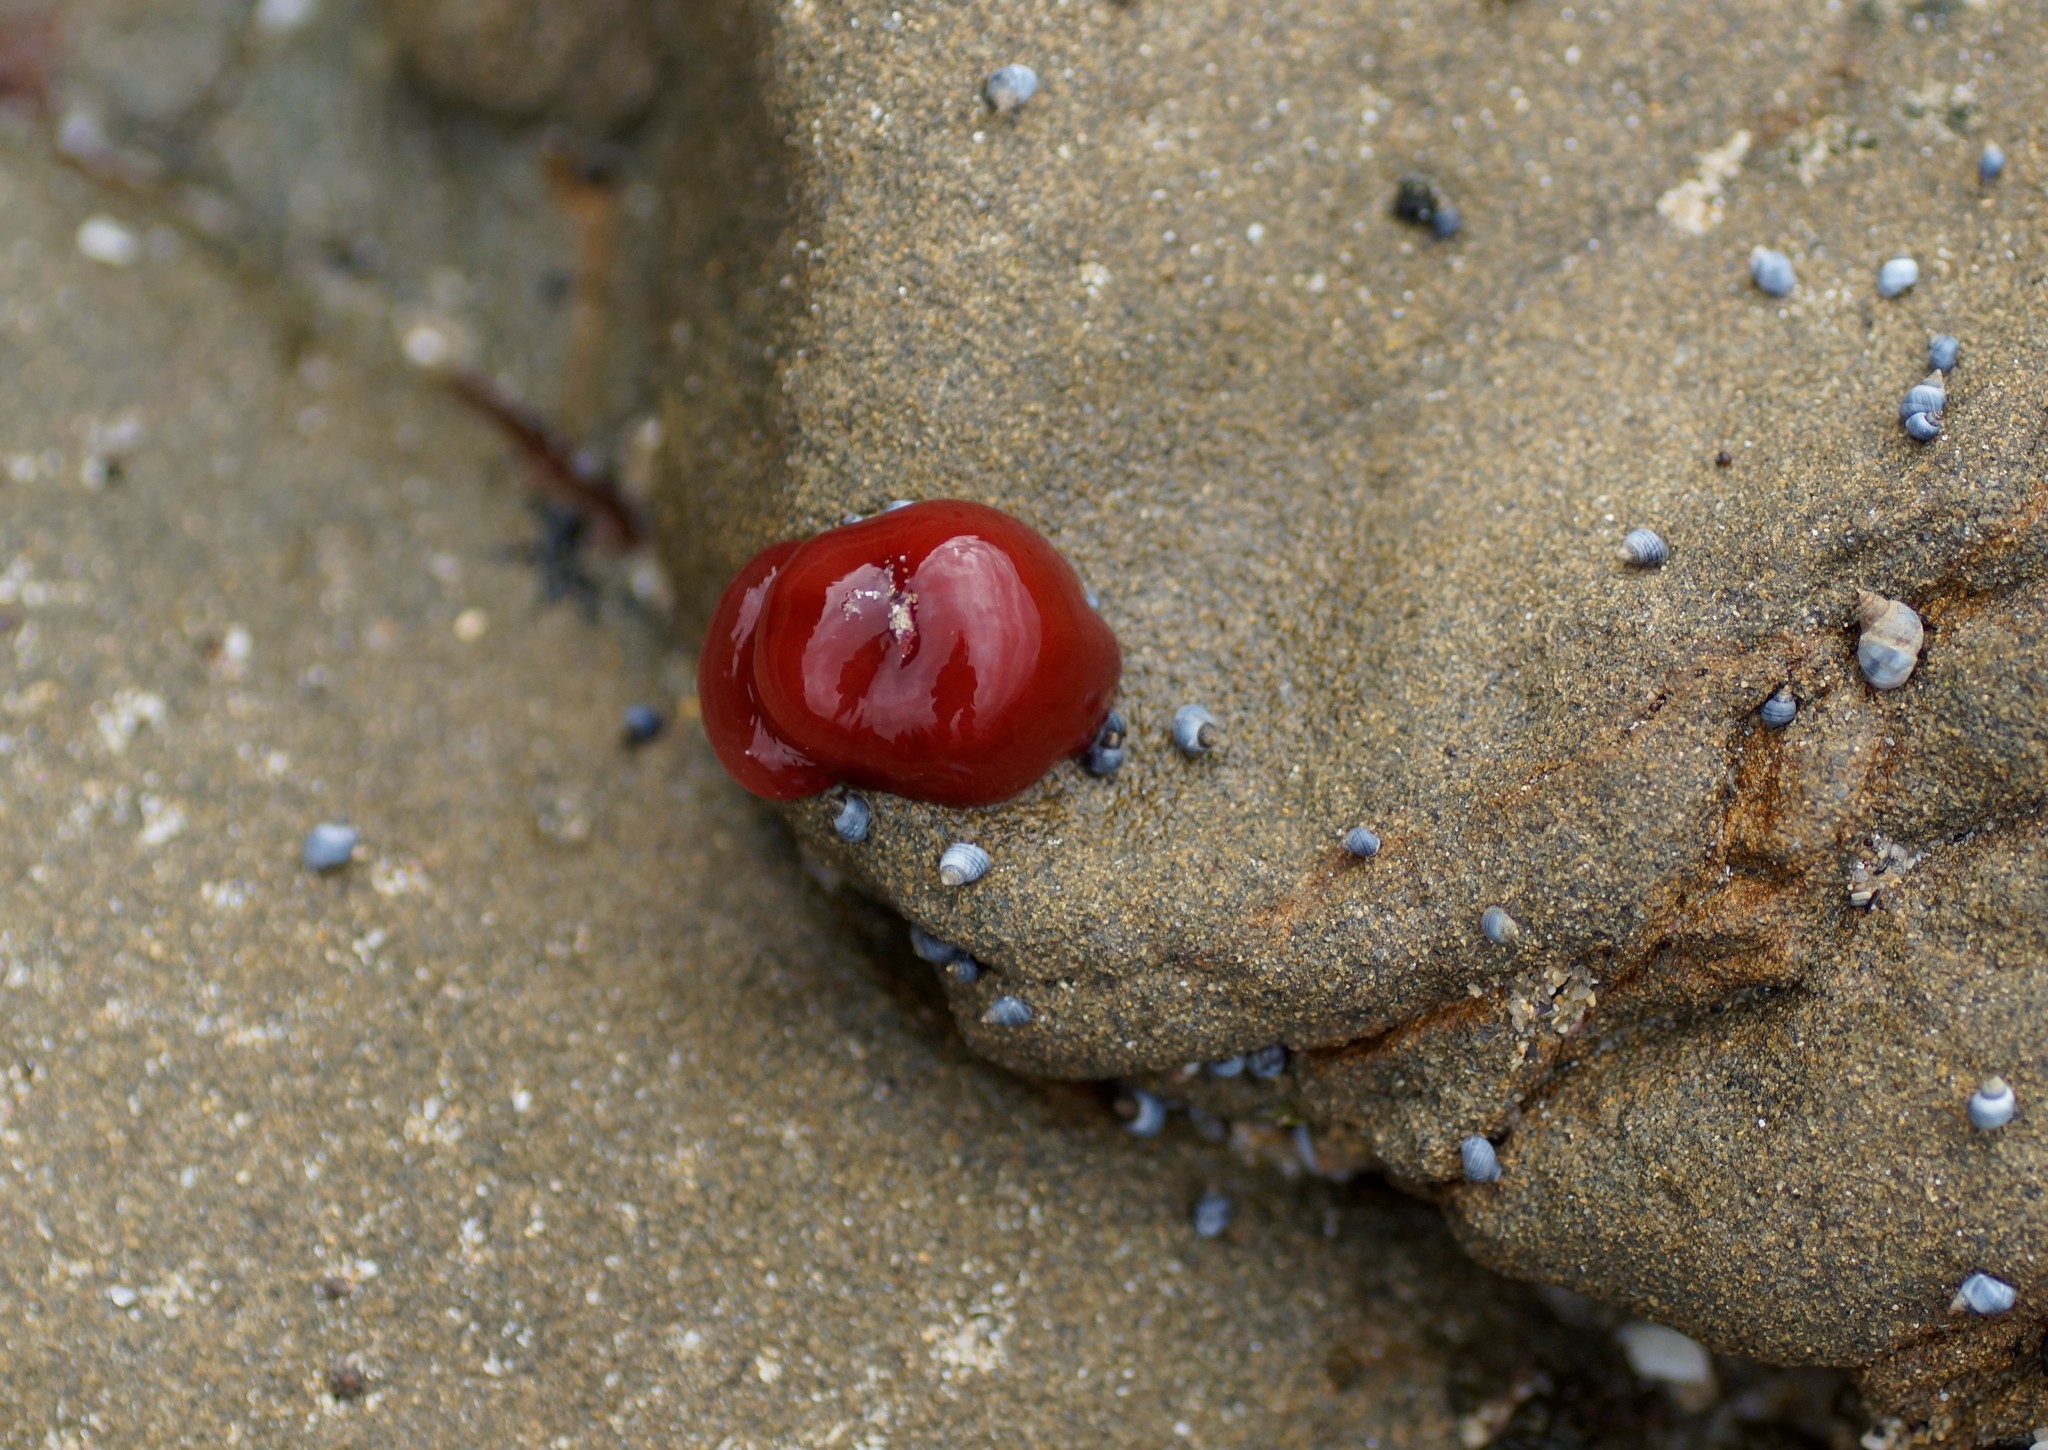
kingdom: Animalia
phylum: Cnidaria
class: Anthozoa
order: Actiniaria
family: Actiniidae
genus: Actinia
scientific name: Actinia tenebrosa
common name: Waratah anemone
